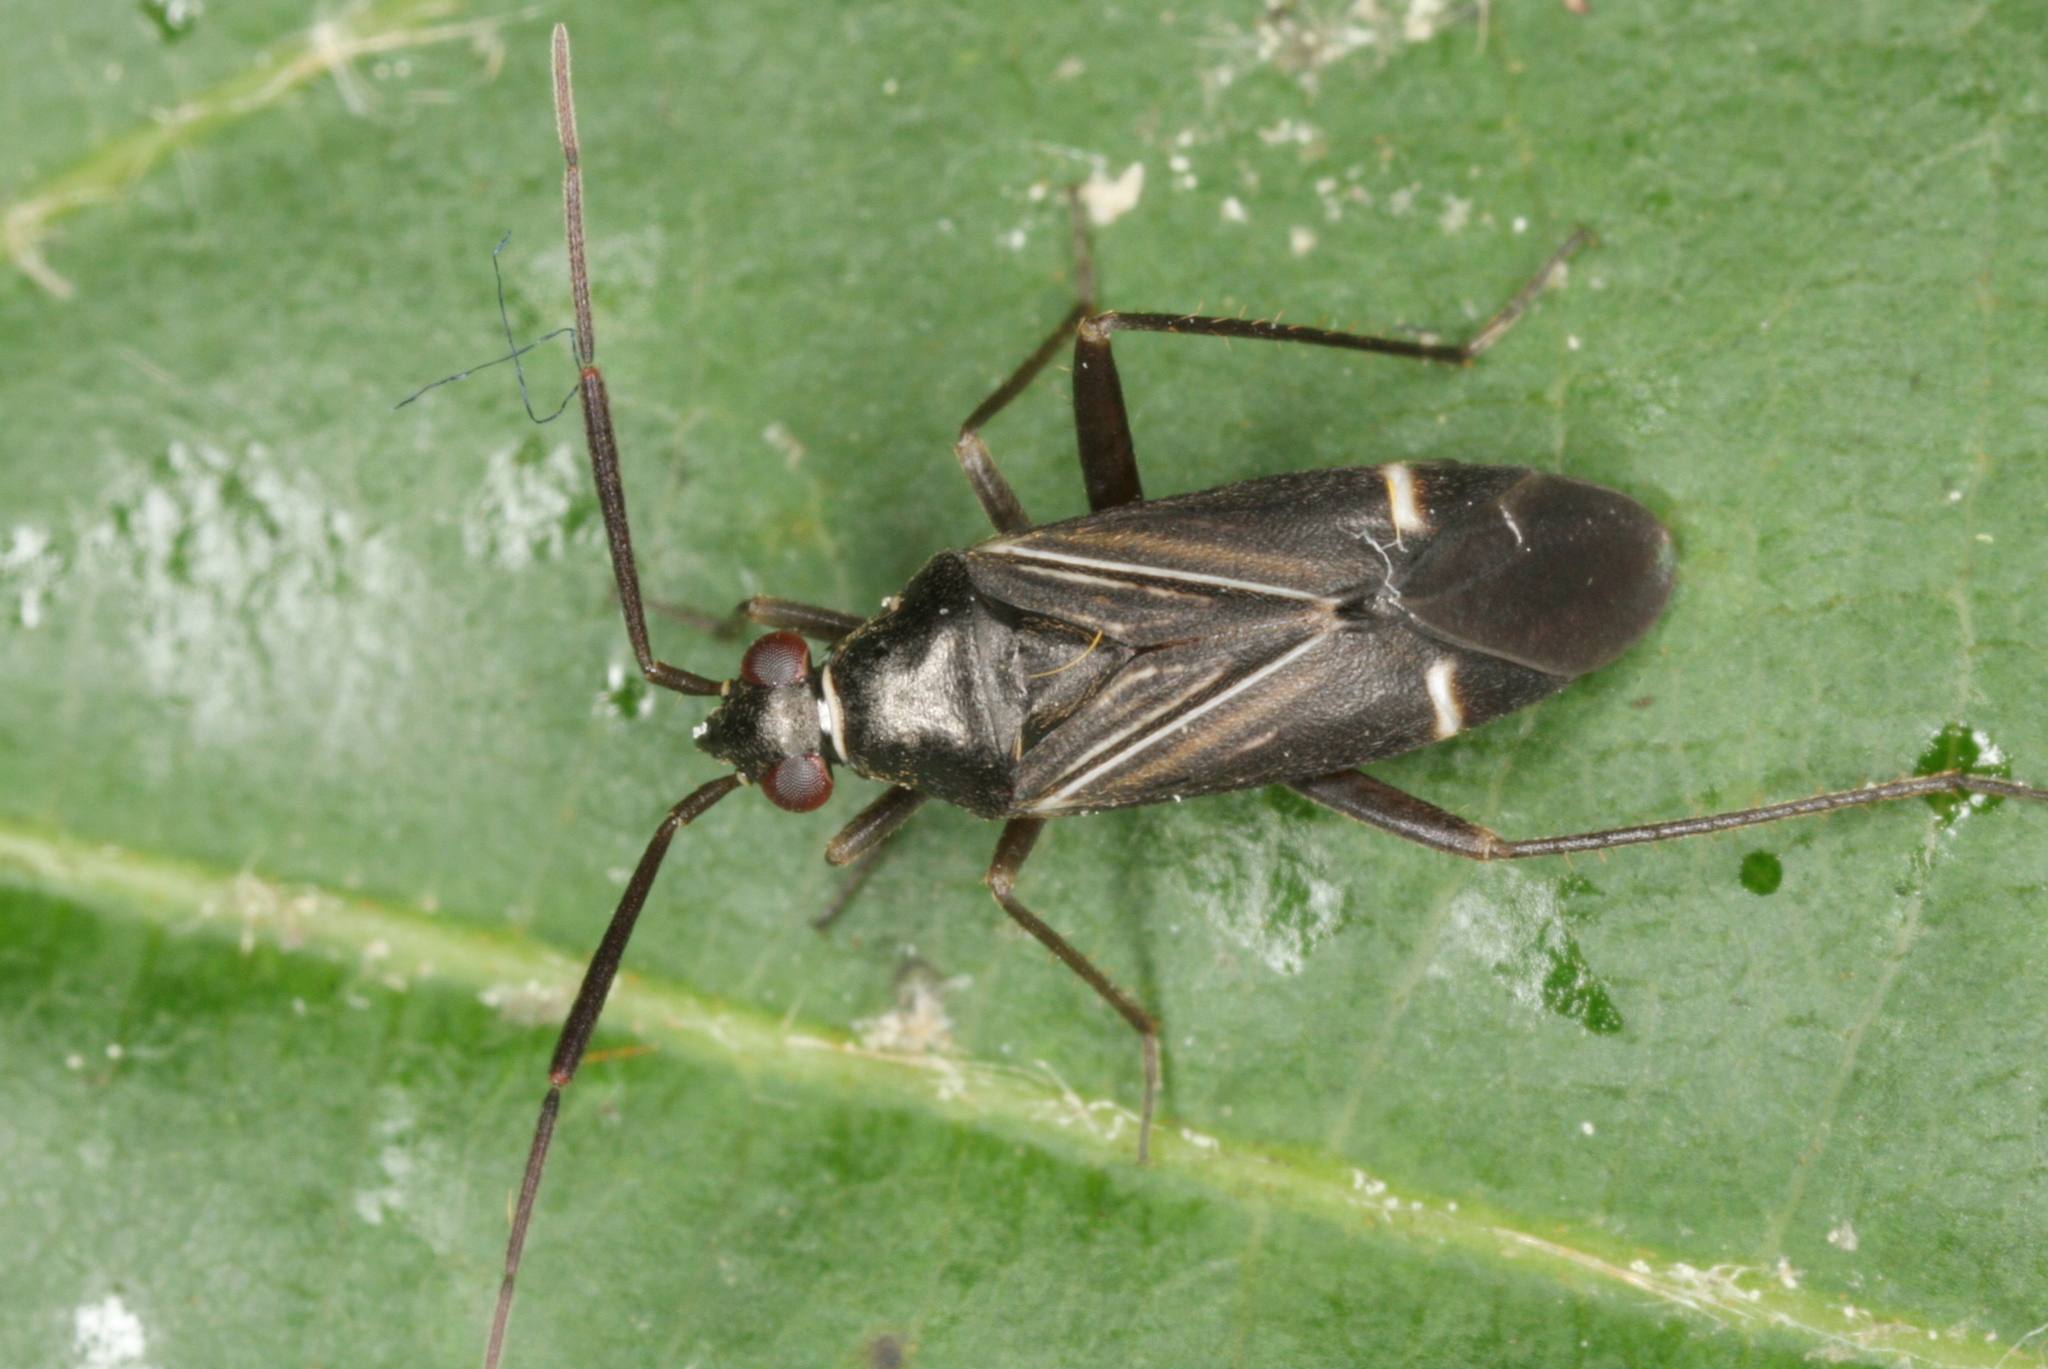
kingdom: Animalia
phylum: Arthropoda
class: Insecta
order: Hemiptera
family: Miridae
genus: Cremnocephalus
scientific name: Cremnocephalus alpestris
